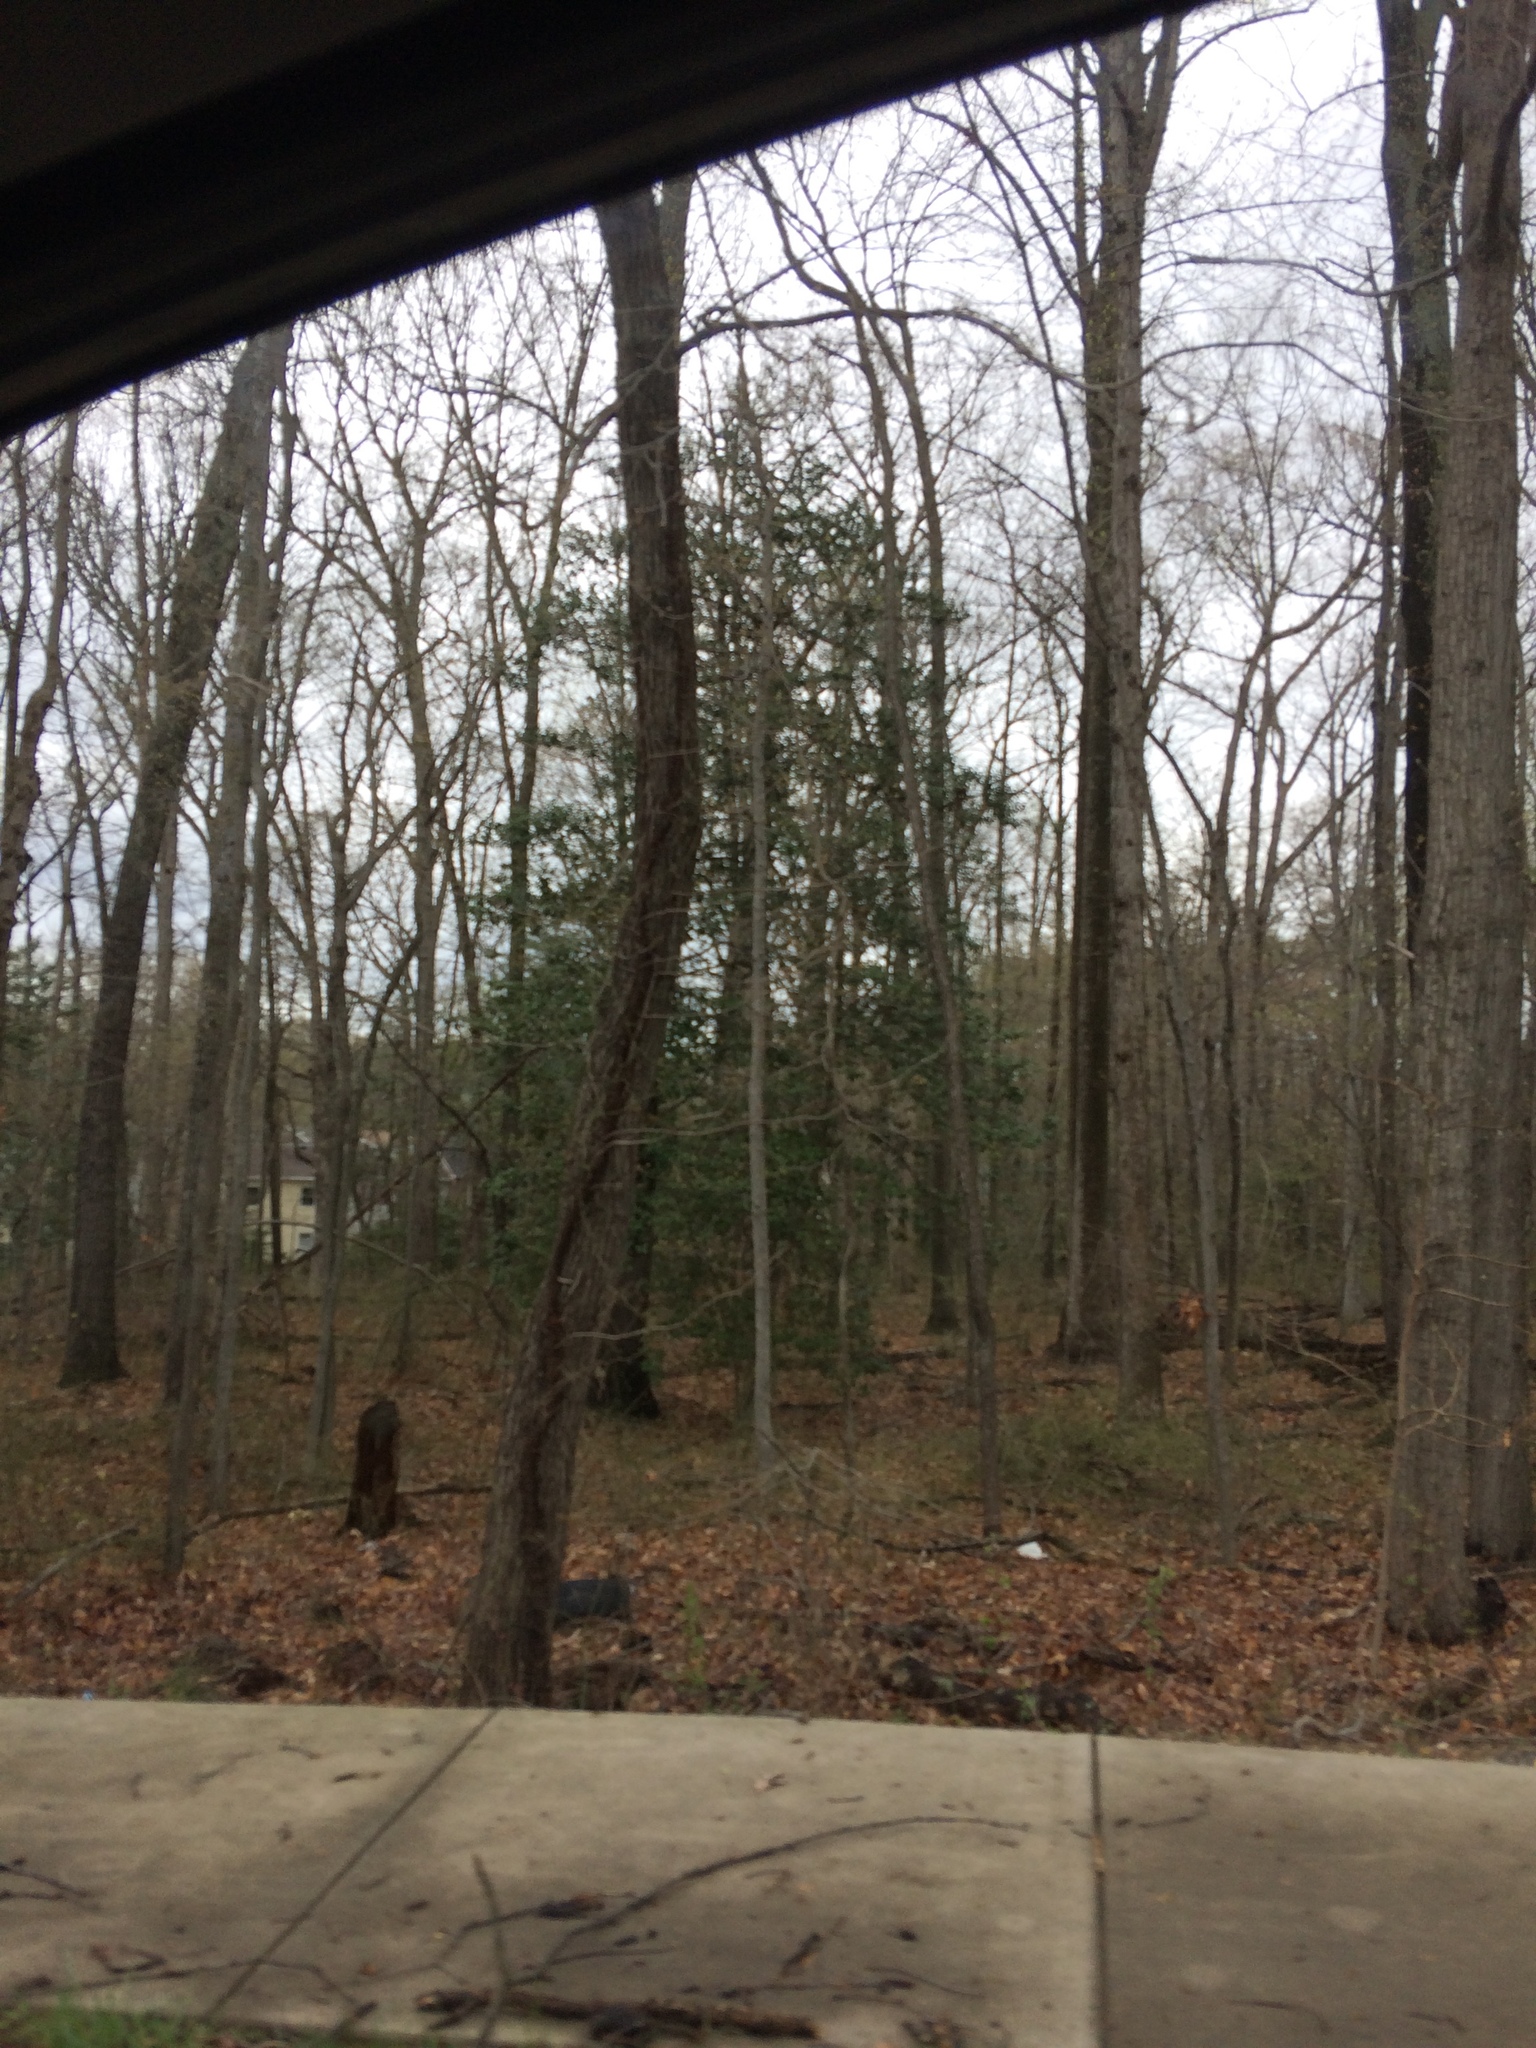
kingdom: Plantae
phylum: Tracheophyta
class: Magnoliopsida
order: Aquifoliales
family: Aquifoliaceae
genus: Ilex
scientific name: Ilex opaca
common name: American holly
